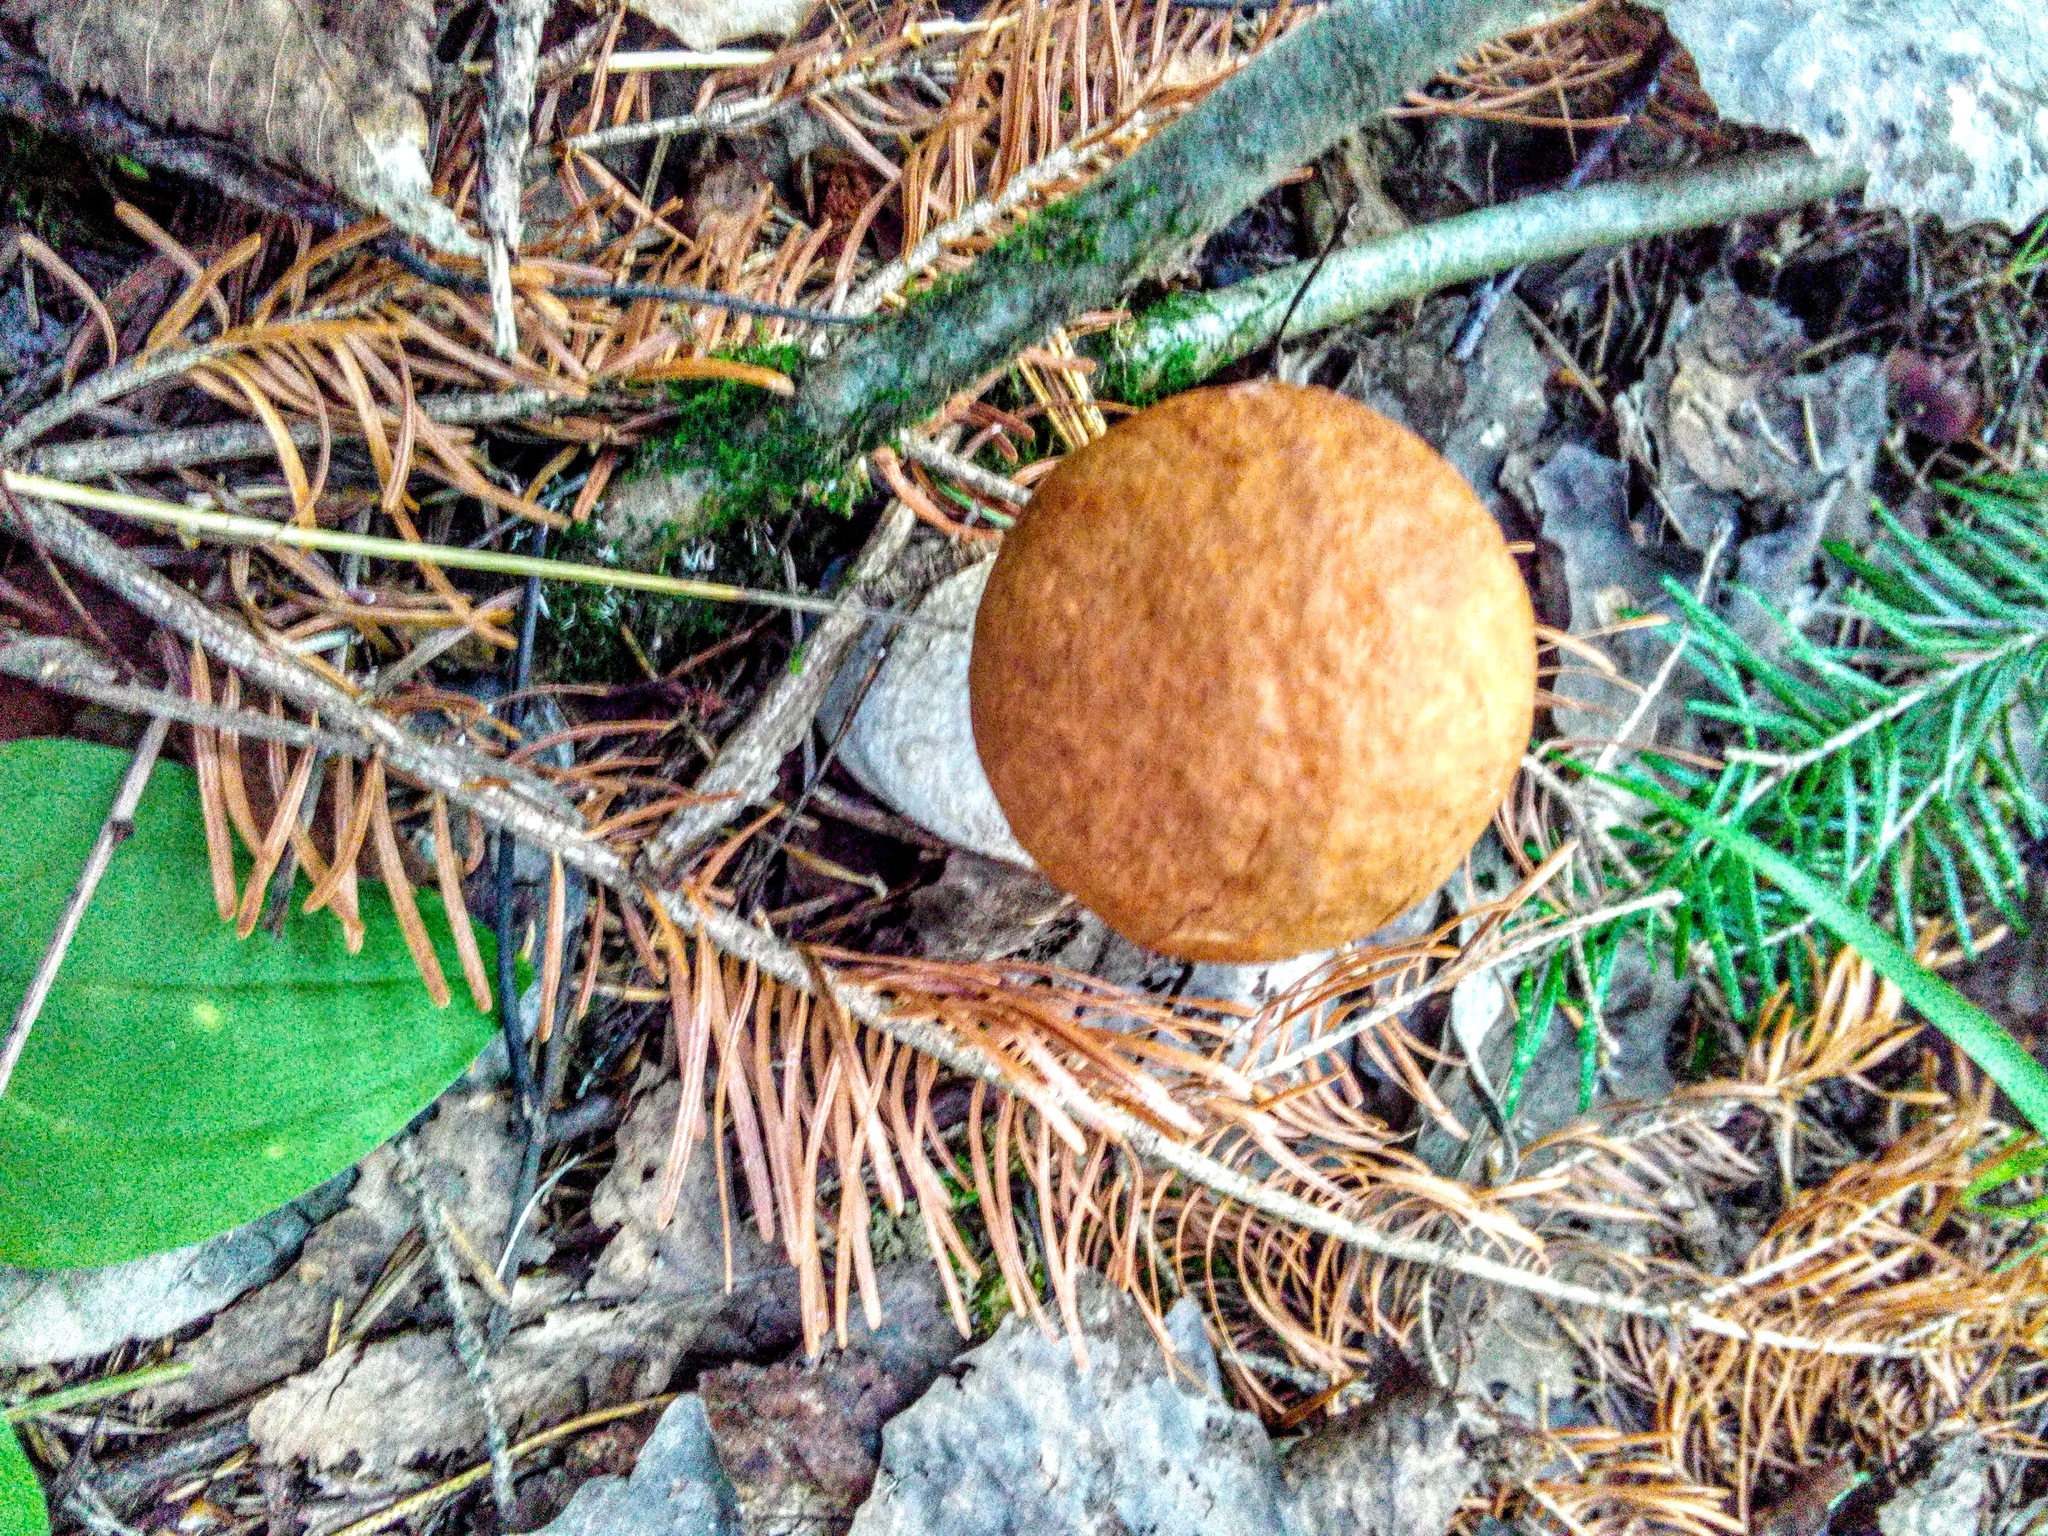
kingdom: Fungi
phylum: Basidiomycota
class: Agaricomycetes
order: Boletales
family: Boletaceae
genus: Leccinum
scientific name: Leccinum albostipitatum
